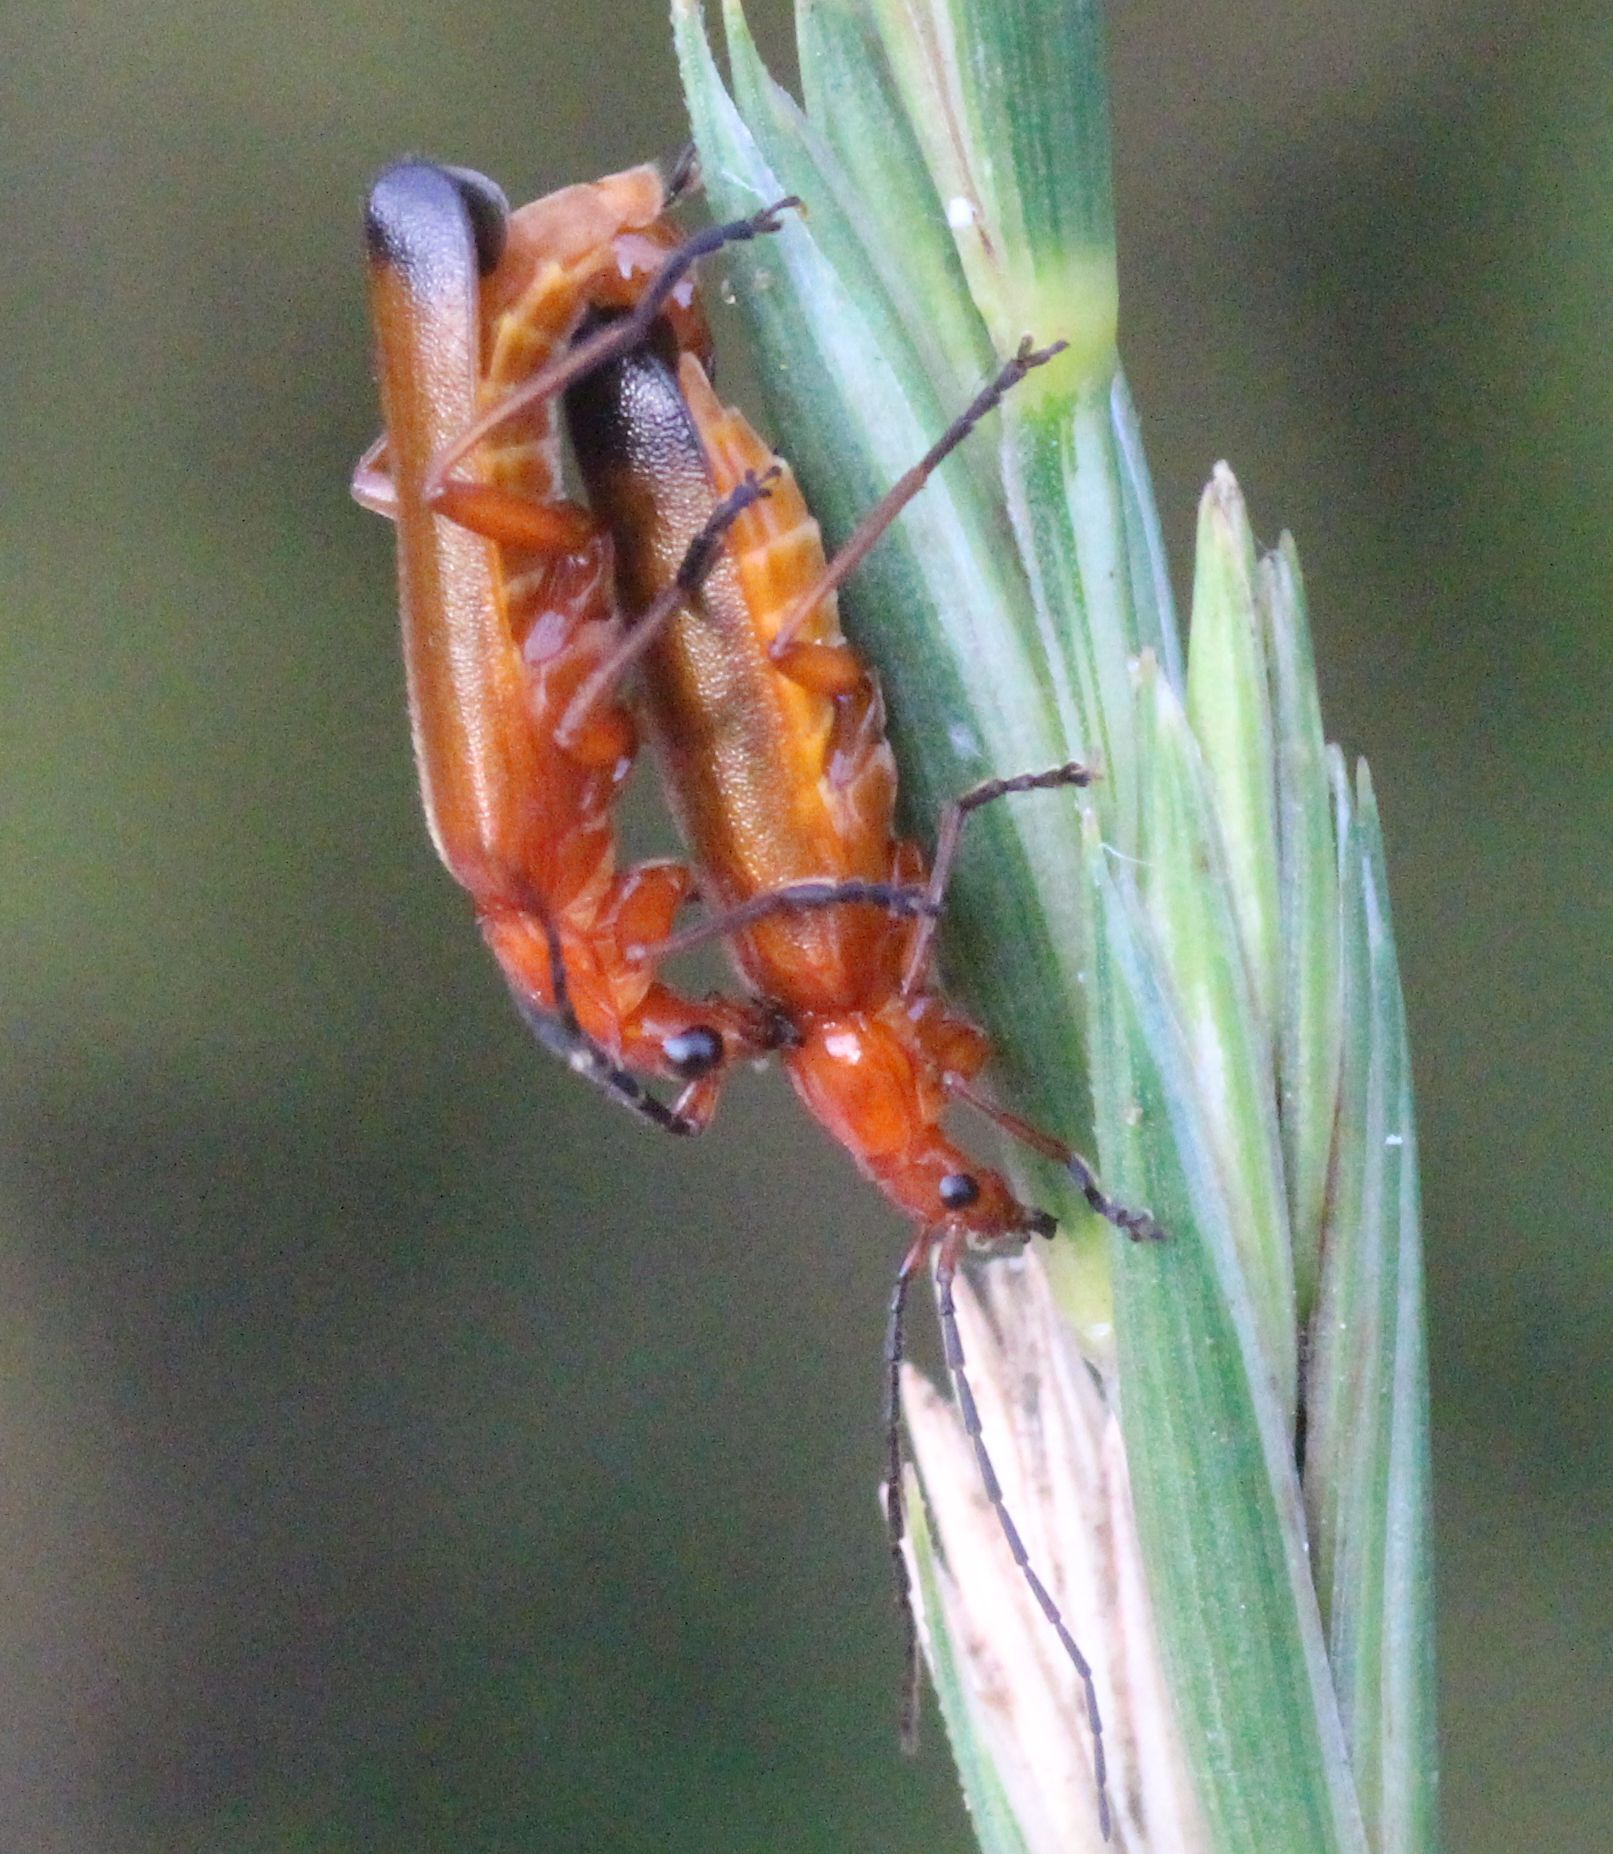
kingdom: Animalia
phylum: Arthropoda
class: Insecta
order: Coleoptera
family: Cantharidae
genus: Rhagonycha
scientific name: Rhagonycha fulva
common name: Common red soldier beetle
